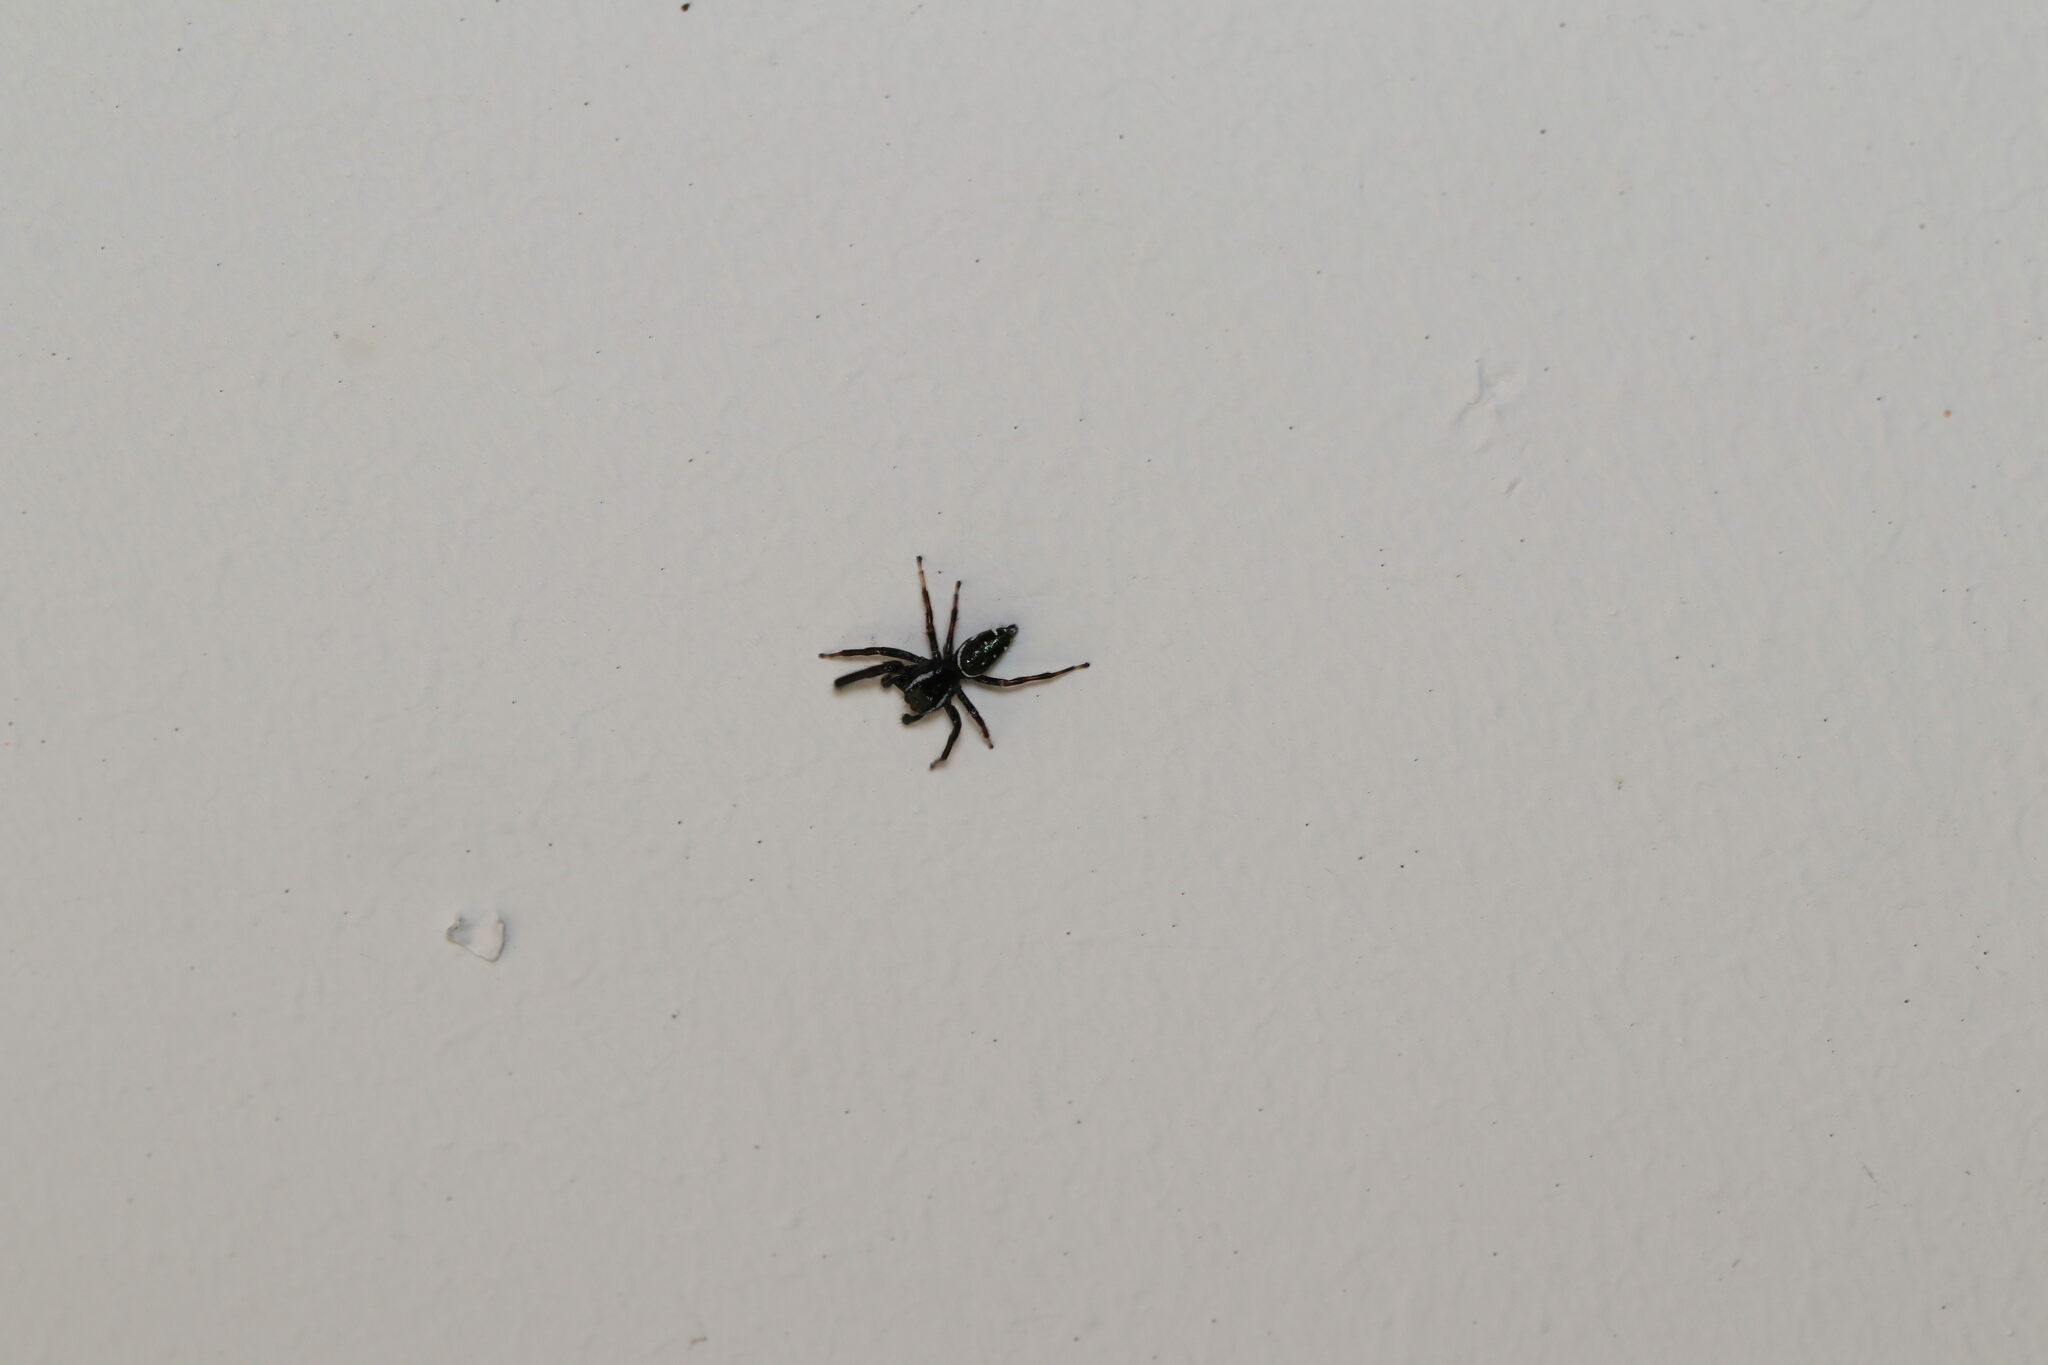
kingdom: Animalia
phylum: Arthropoda
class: Arachnida
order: Araneae
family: Salticidae
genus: Paraphidippus
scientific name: Paraphidippus aurantius
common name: Jumping spiders
